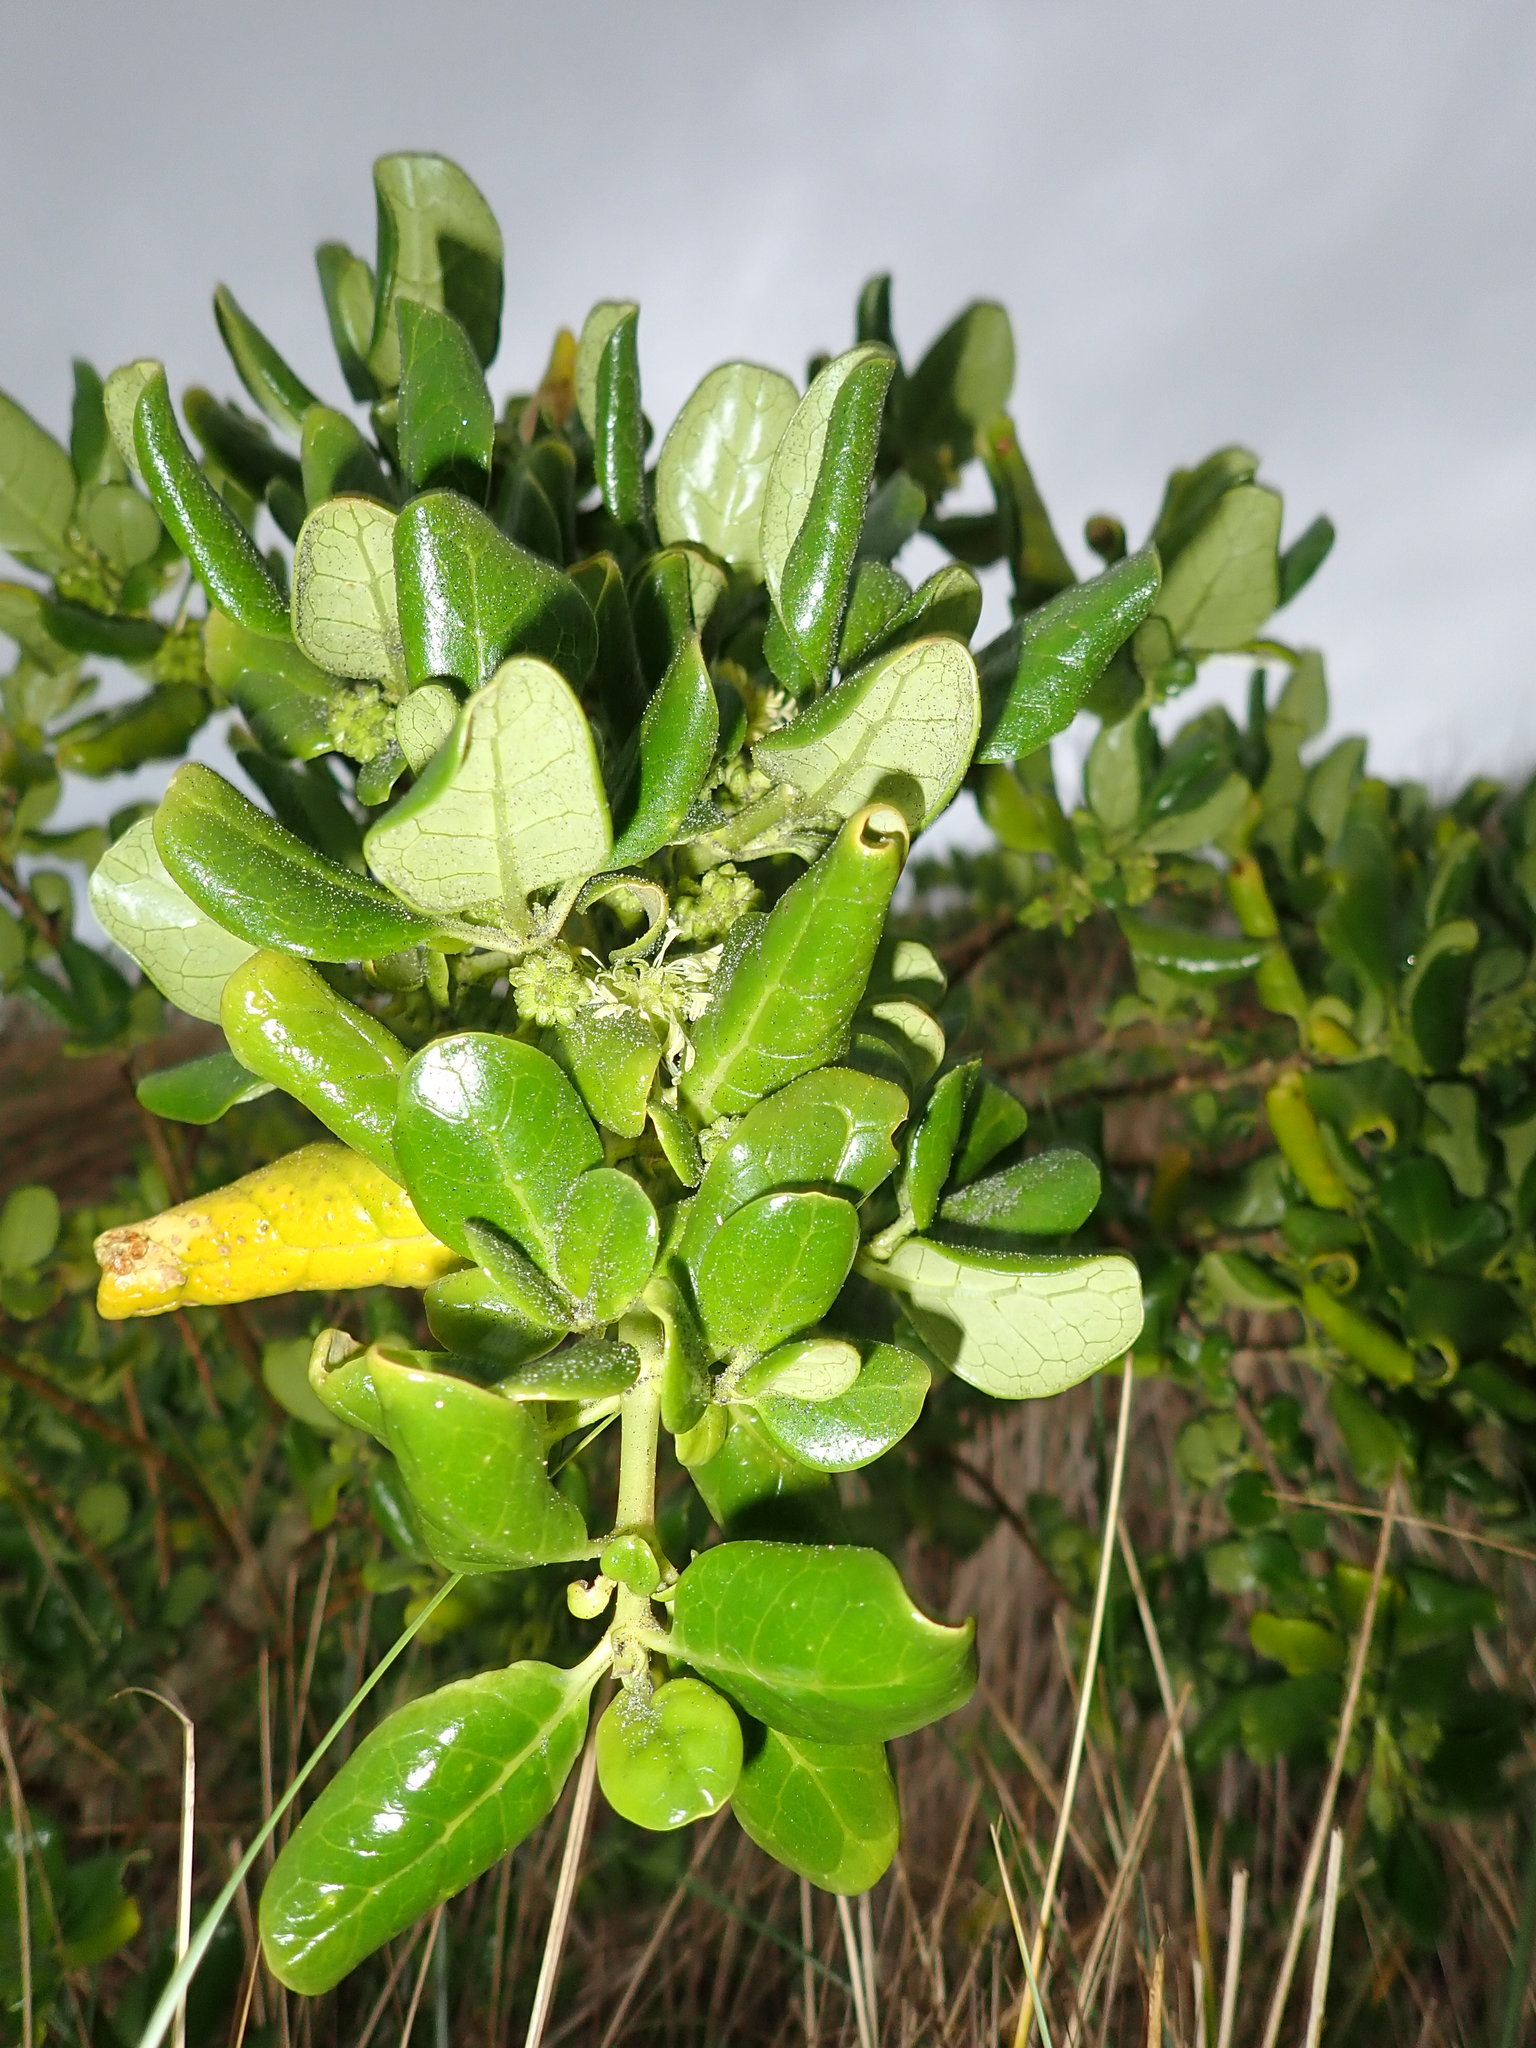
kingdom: Plantae
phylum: Tracheophyta
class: Magnoliopsida
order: Gentianales
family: Rubiaceae
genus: Coprosma
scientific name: Coprosma repens
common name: Tree bedstraw
